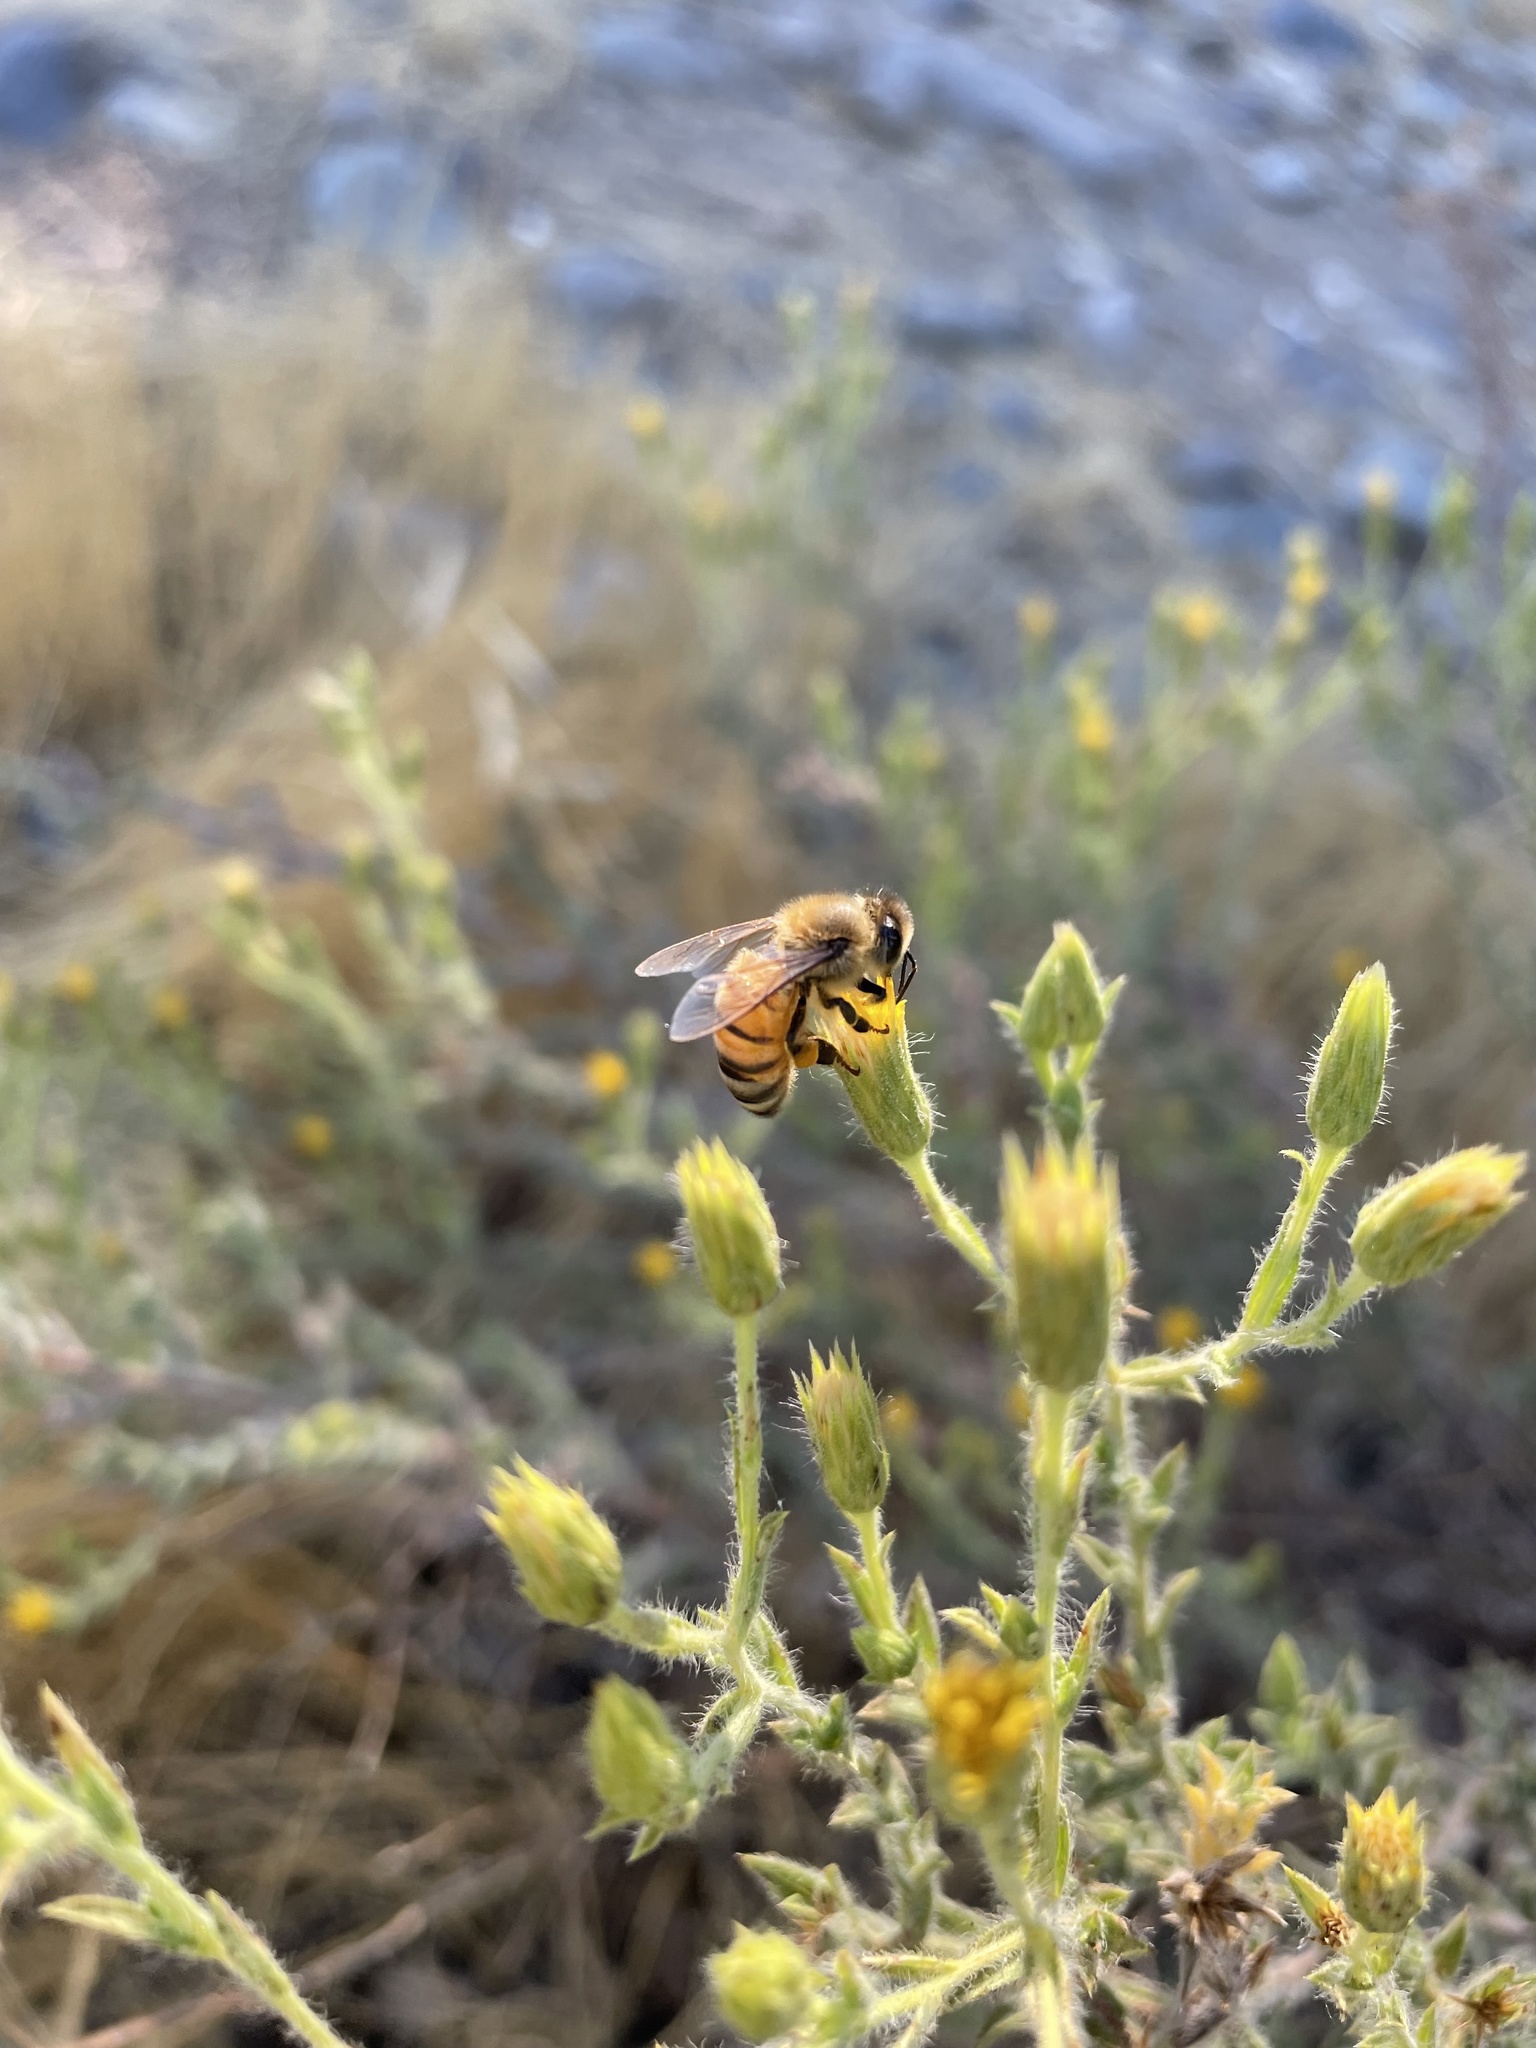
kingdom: Animalia
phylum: Arthropoda
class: Insecta
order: Hymenoptera
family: Apidae
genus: Apis
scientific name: Apis mellifera
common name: Honey bee
